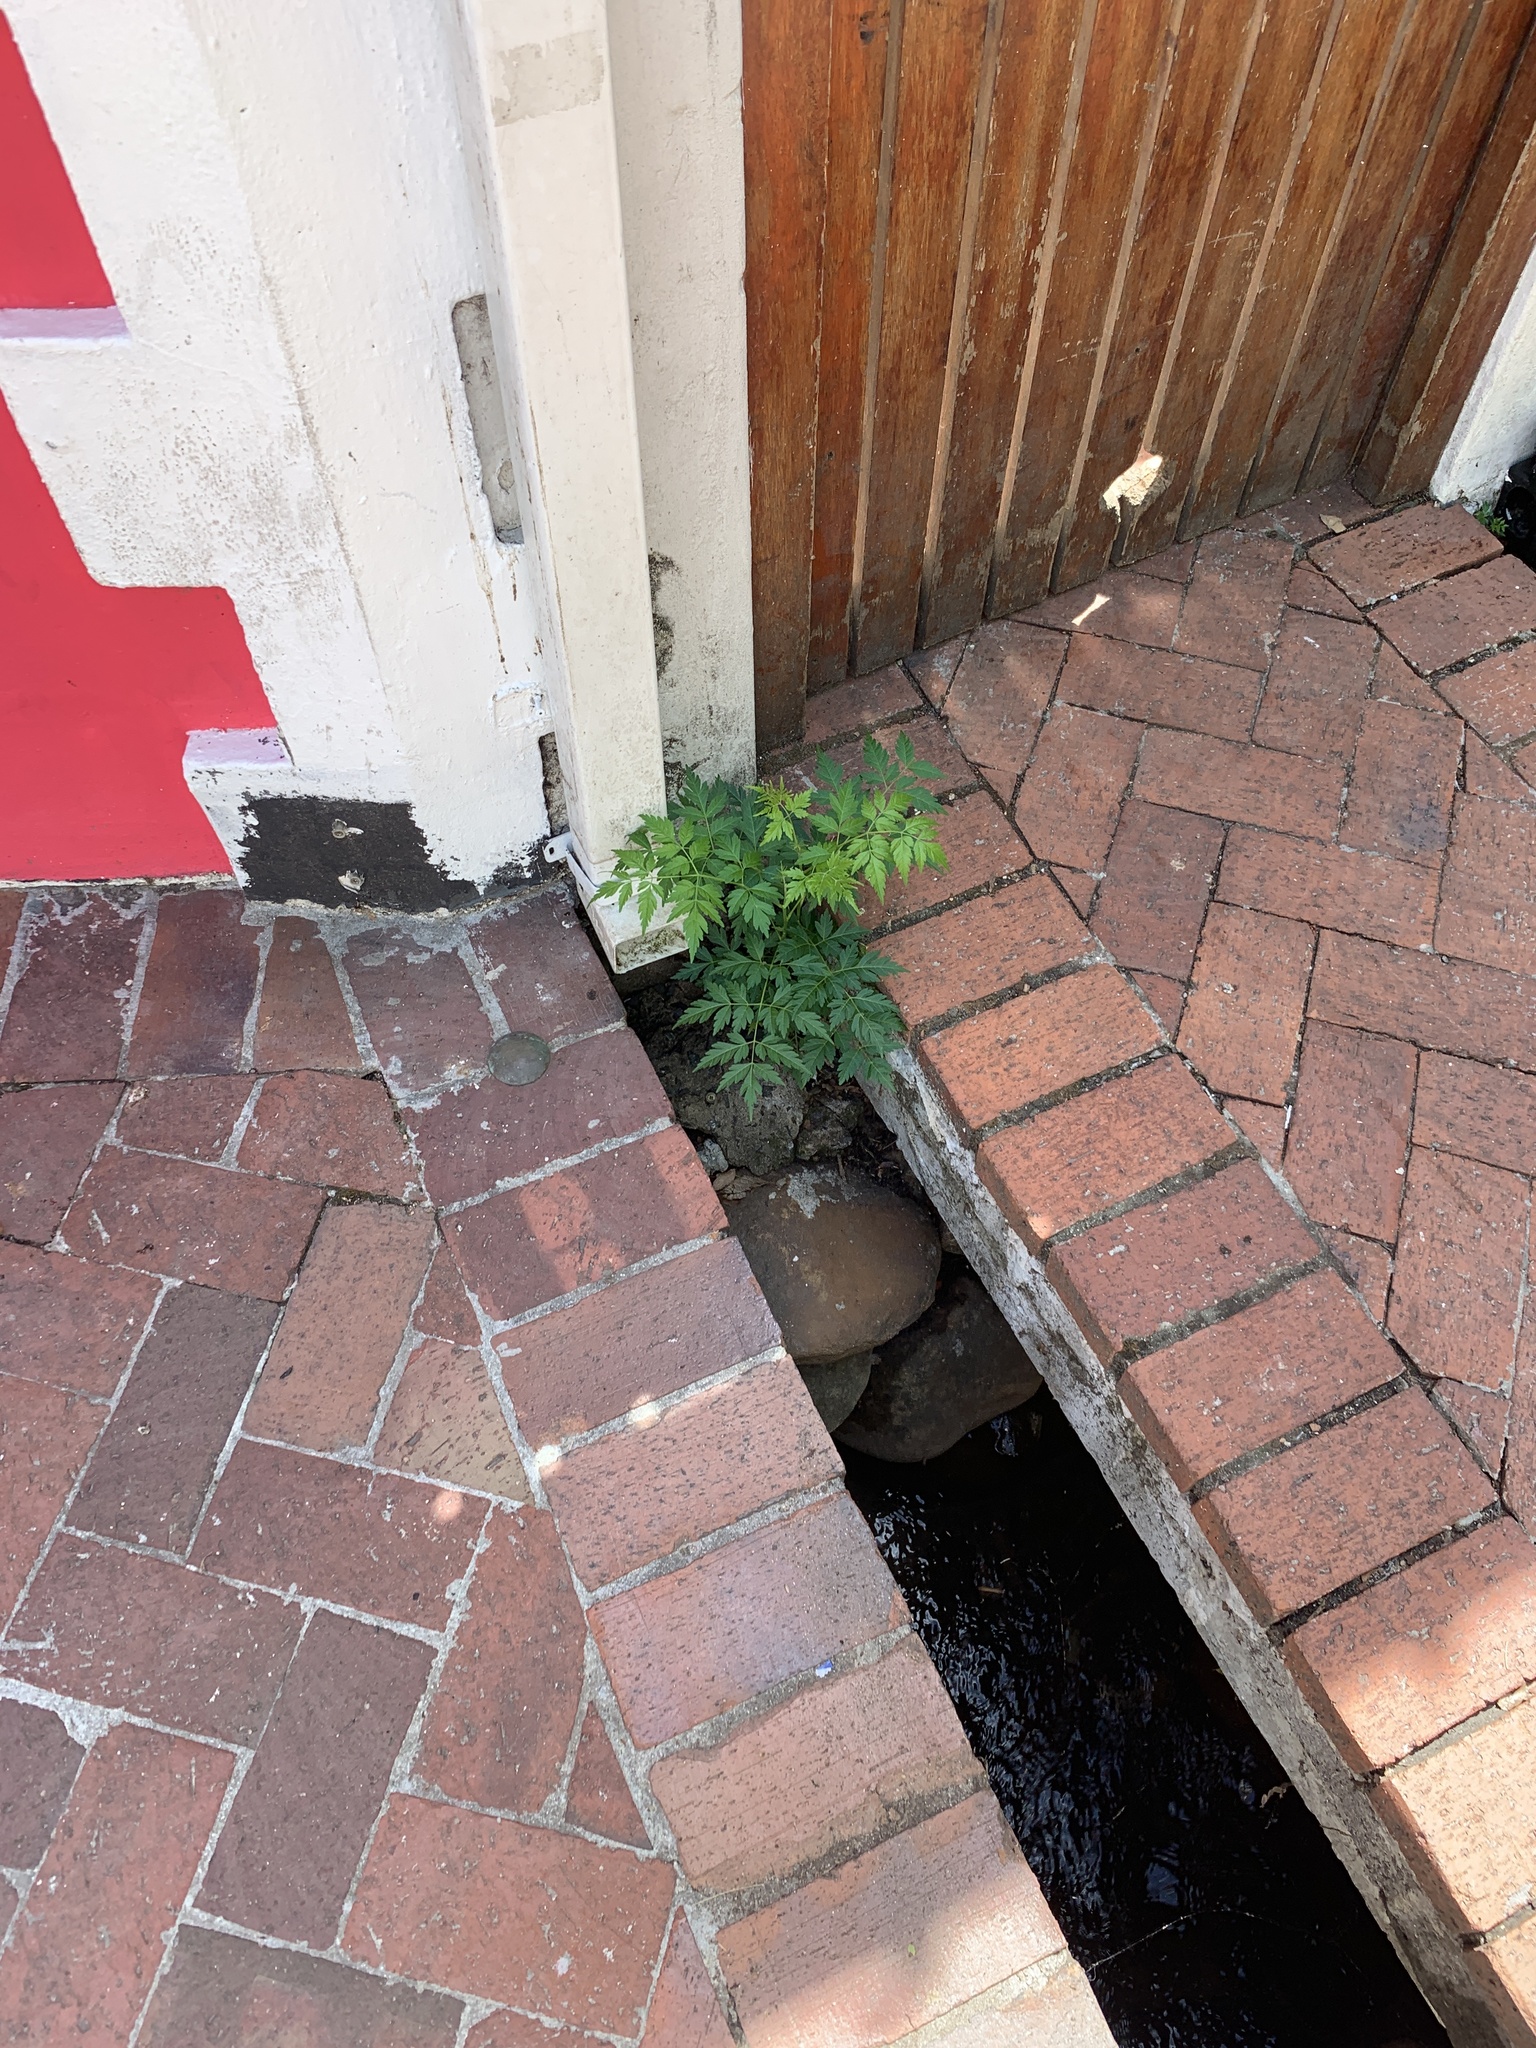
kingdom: Plantae
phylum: Tracheophyta
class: Magnoliopsida
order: Sapindales
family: Meliaceae
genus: Melia
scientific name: Melia azedarach
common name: Chinaberrytree
